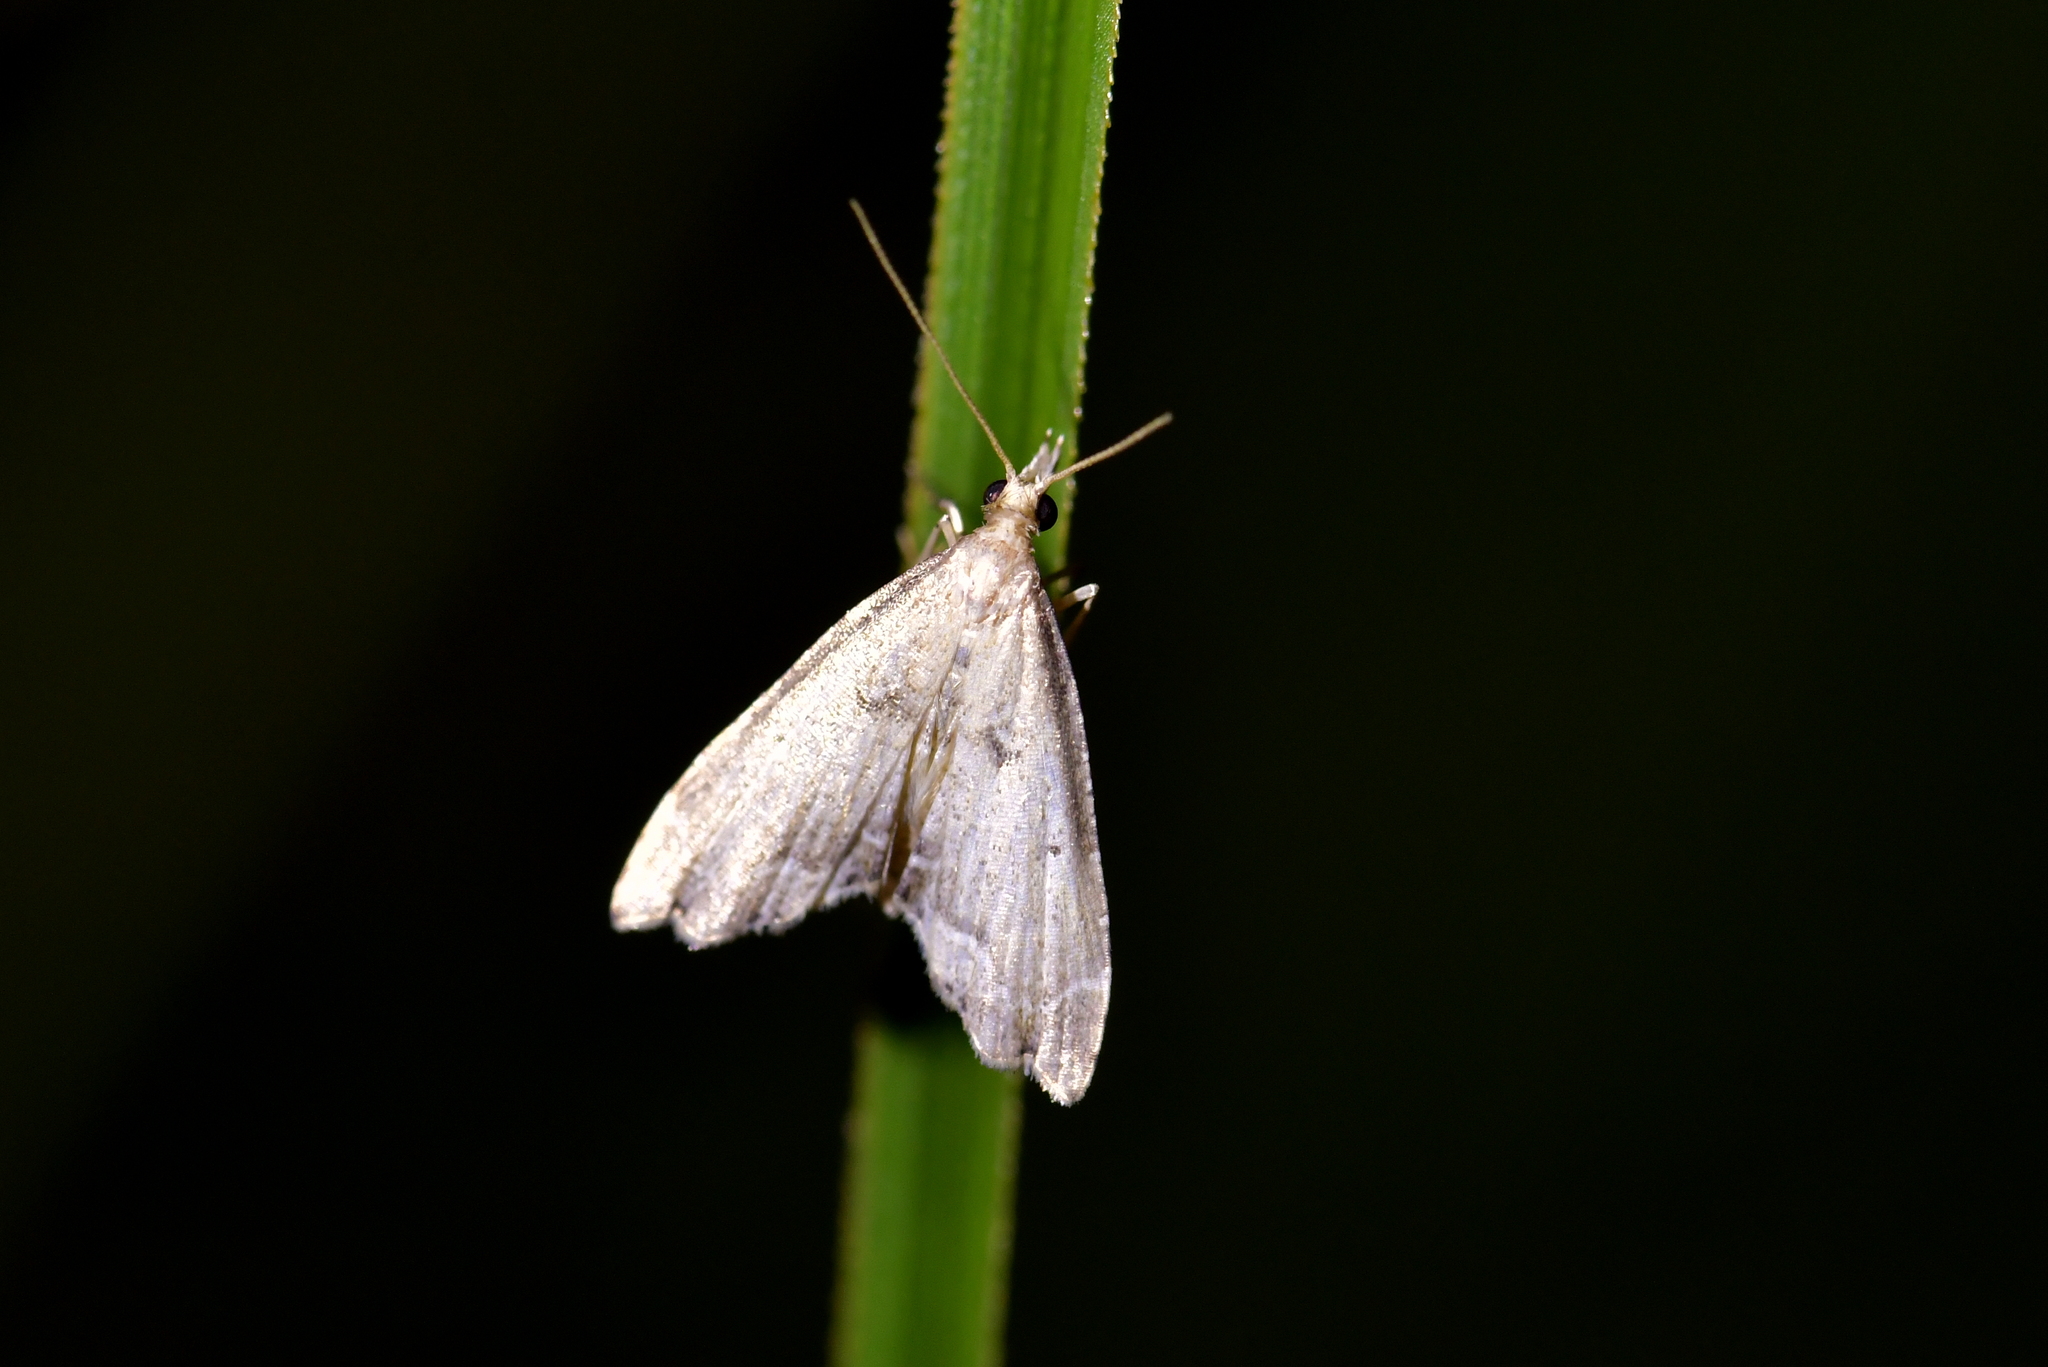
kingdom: Animalia
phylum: Arthropoda
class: Insecta
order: Lepidoptera
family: Crambidae
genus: Diplopseustis
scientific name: Diplopseustis perieresalis
